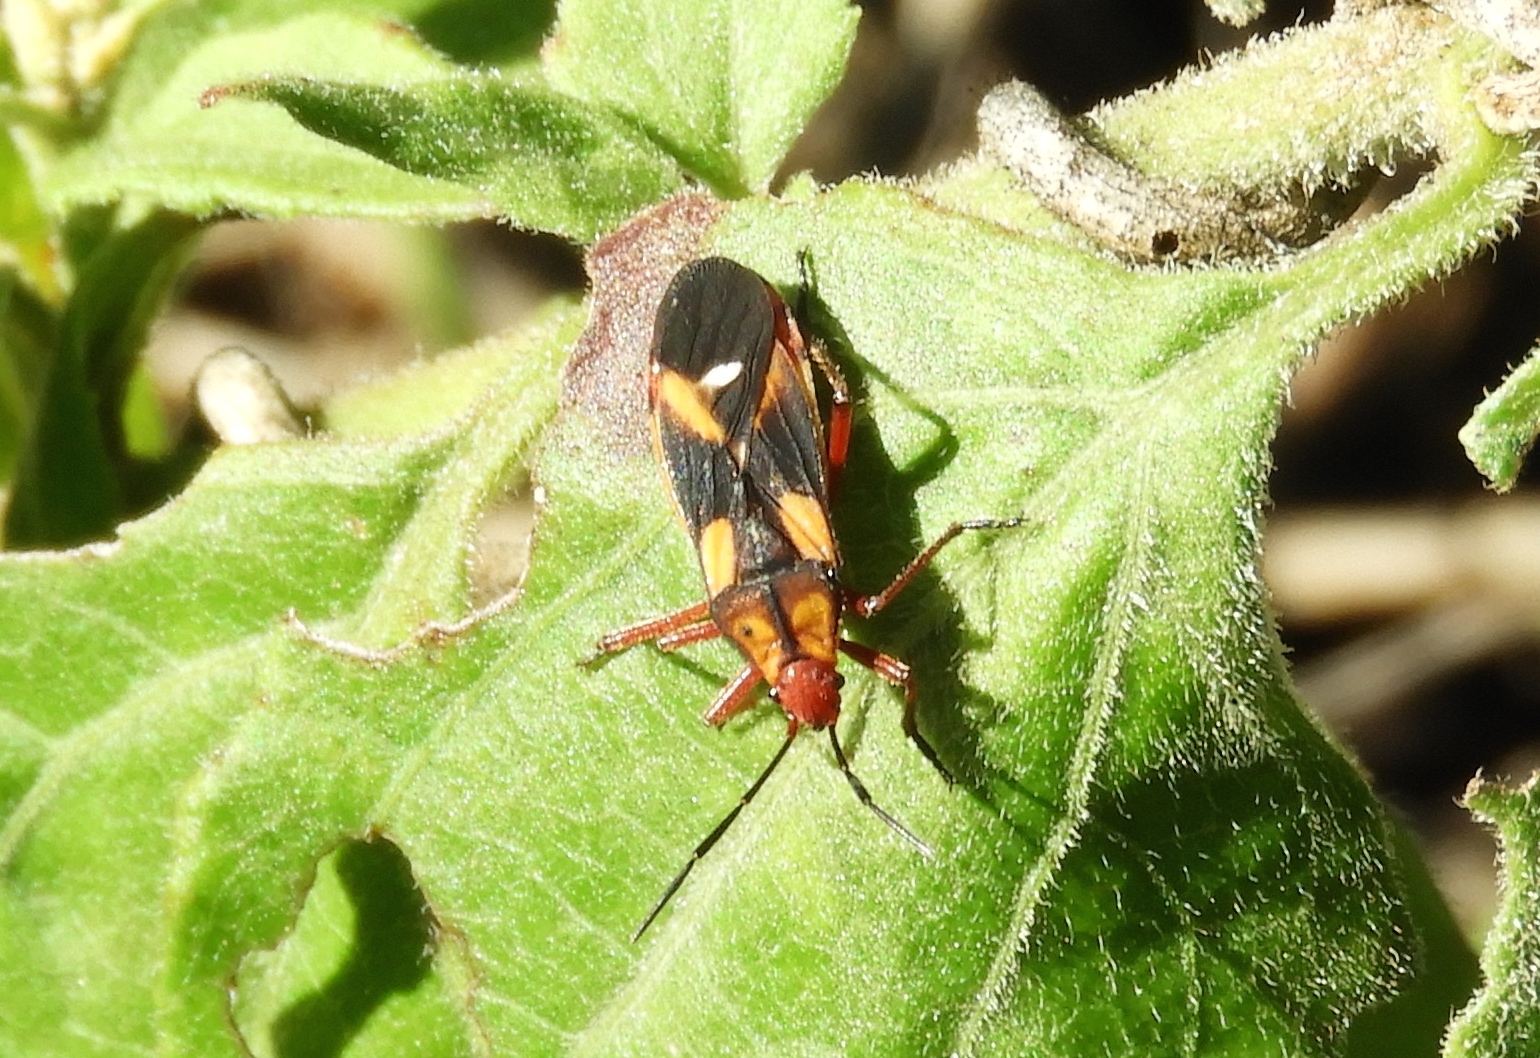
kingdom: Animalia
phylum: Arthropoda
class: Insecta
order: Hemiptera
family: Lygaeidae
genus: Oncopeltus
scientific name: Oncopeltus guttaloides
